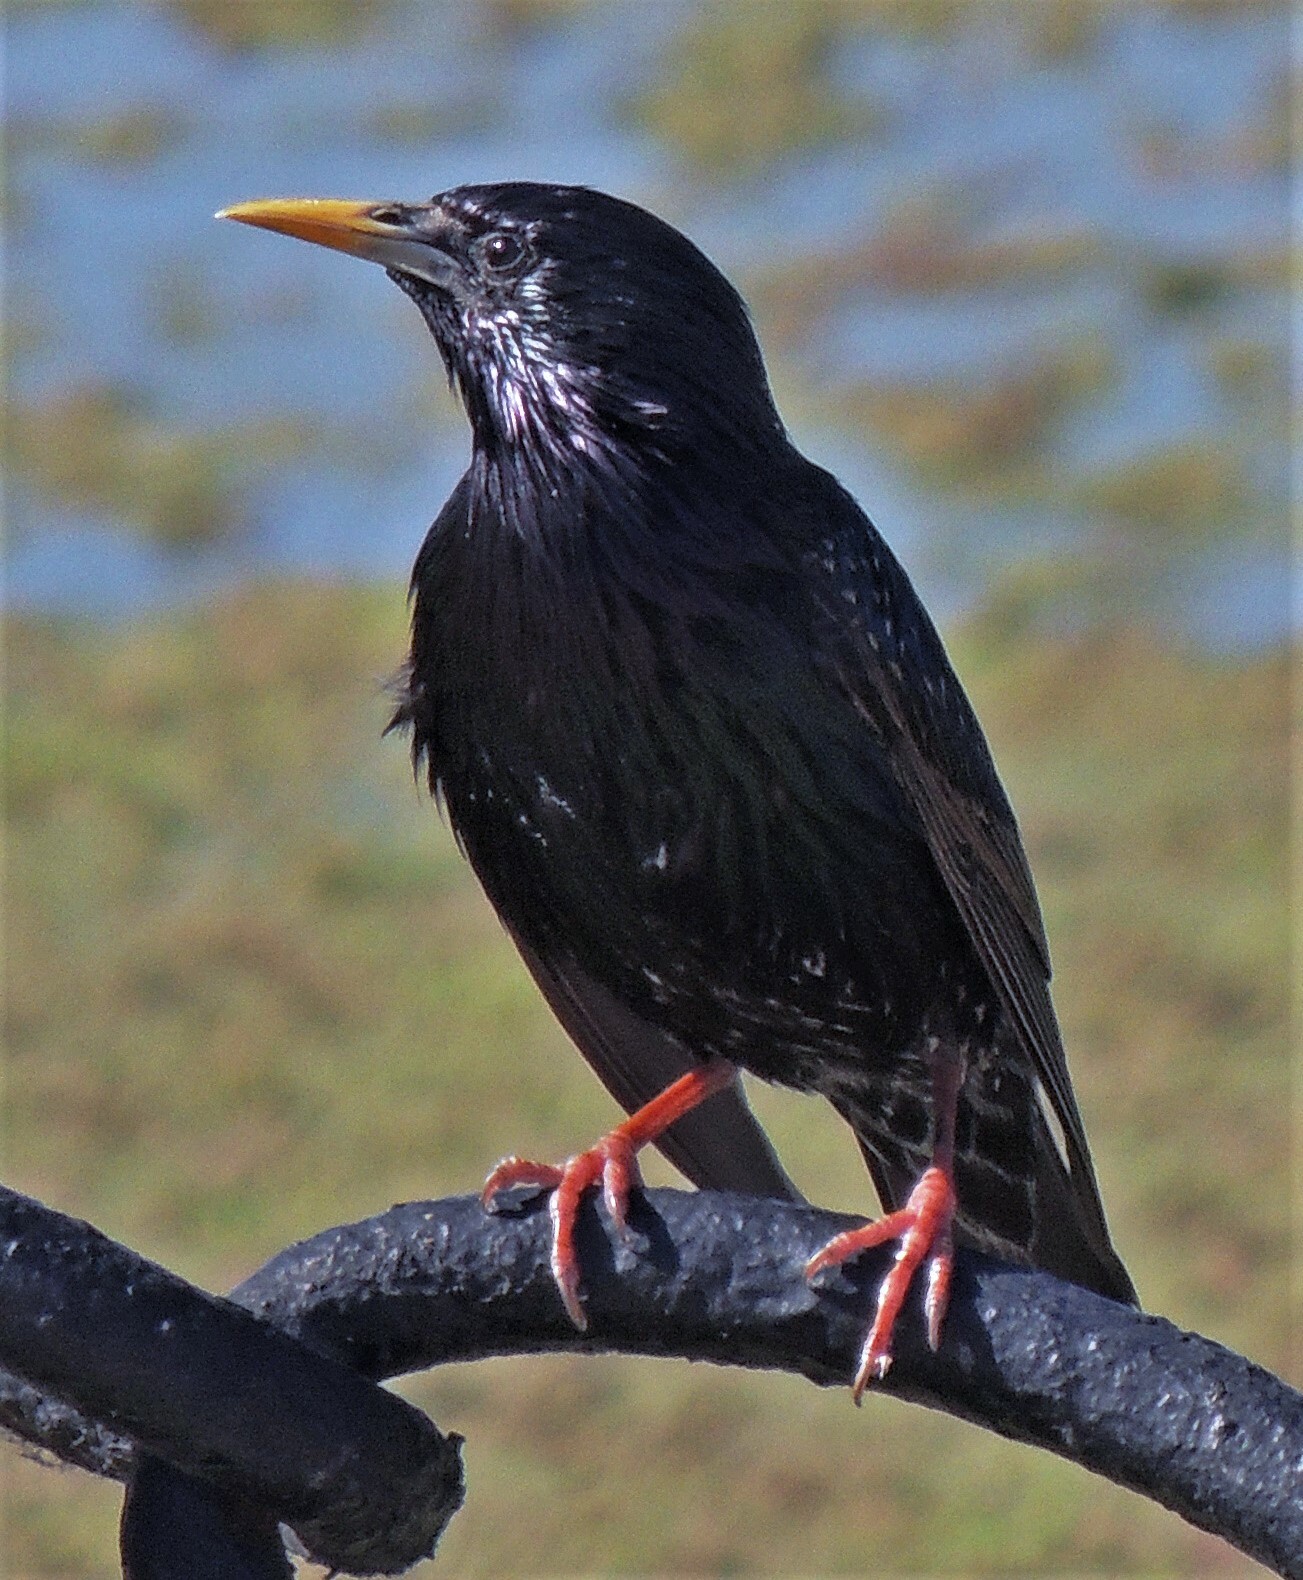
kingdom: Animalia
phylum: Chordata
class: Aves
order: Passeriformes
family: Sturnidae
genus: Sturnus
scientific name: Sturnus vulgaris
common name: Common starling
